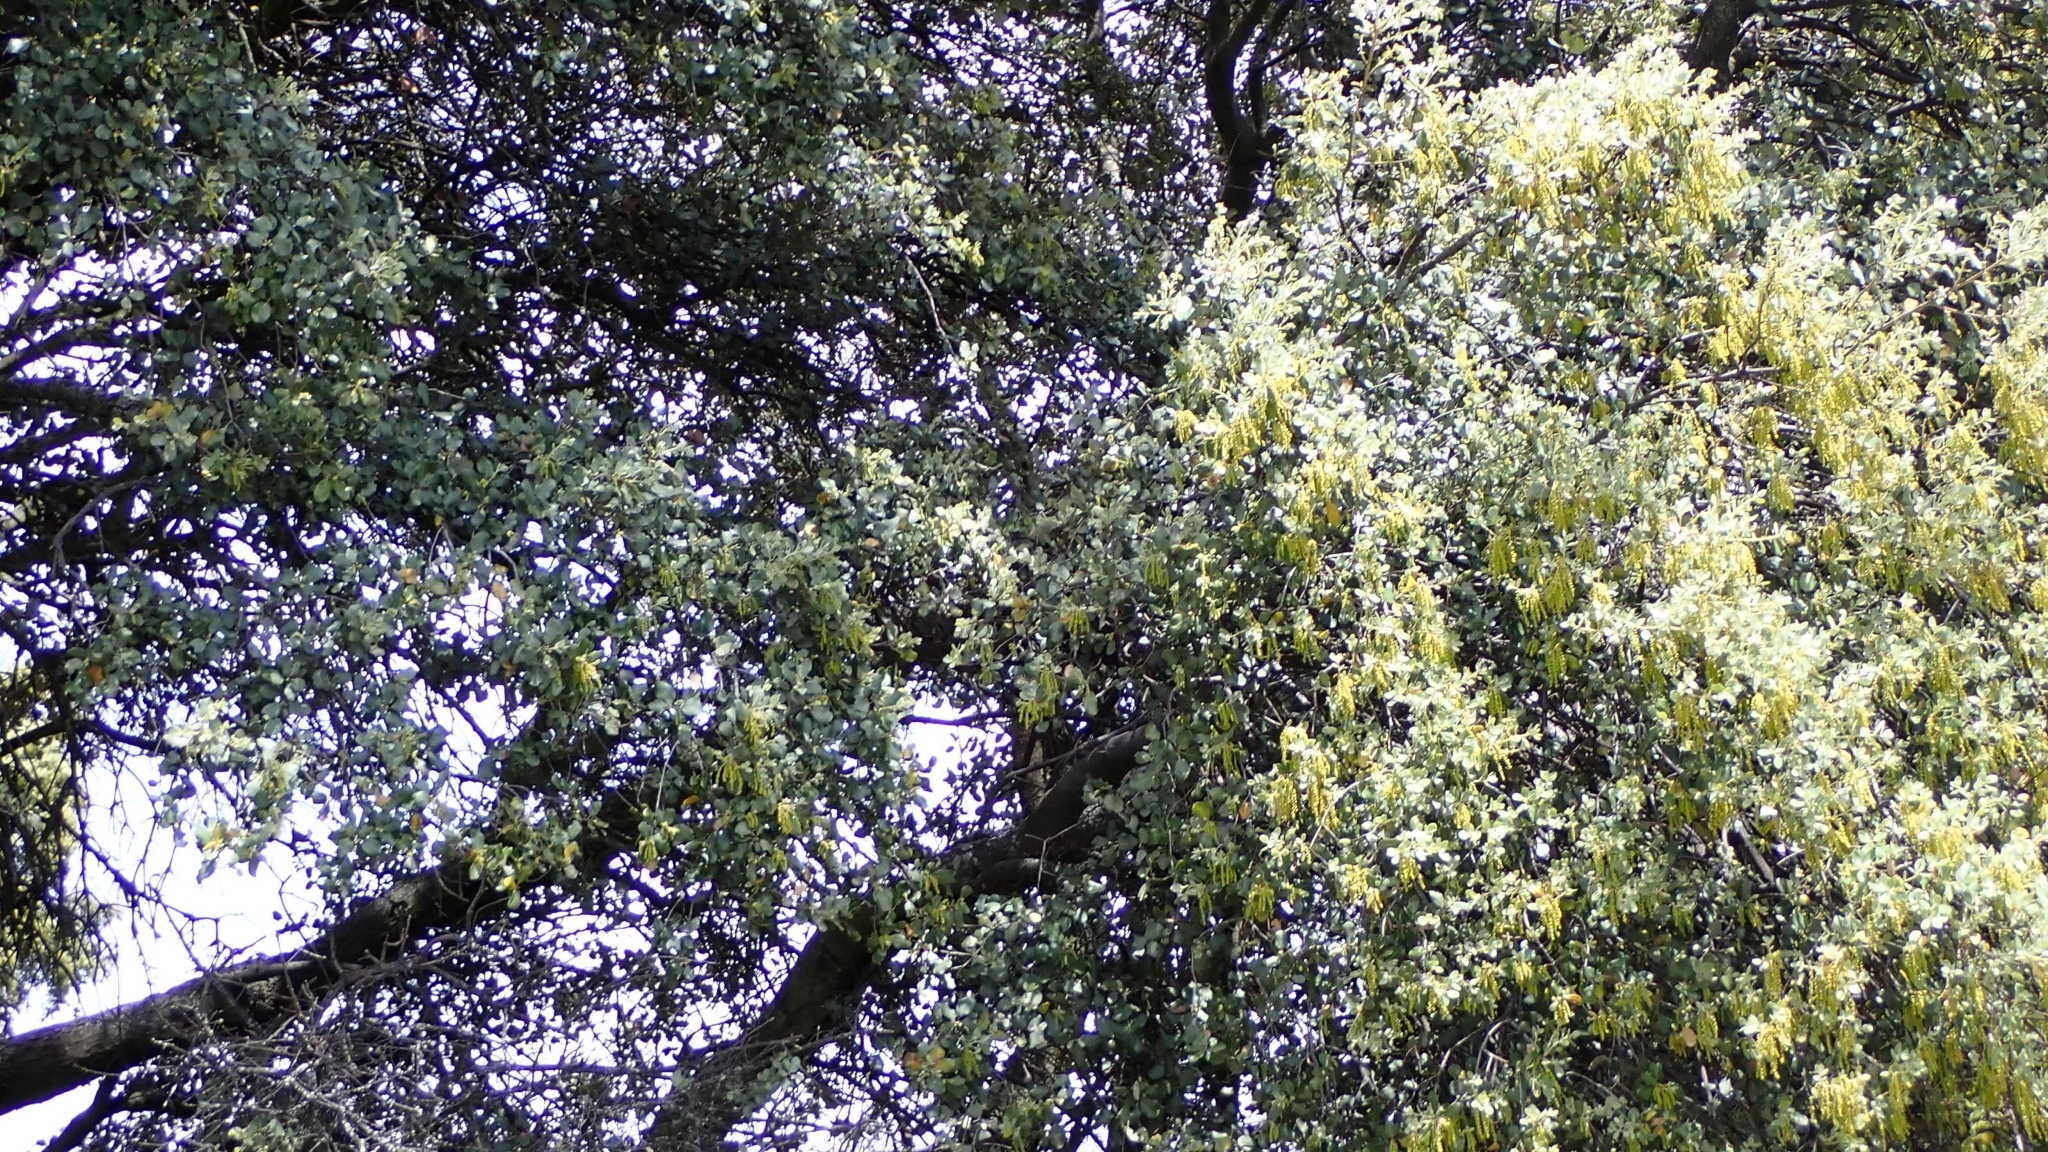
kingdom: Plantae
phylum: Tracheophyta
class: Magnoliopsida
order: Fagales
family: Fagaceae
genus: Quercus
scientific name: Quercus rotundifolia
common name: Holm oak
